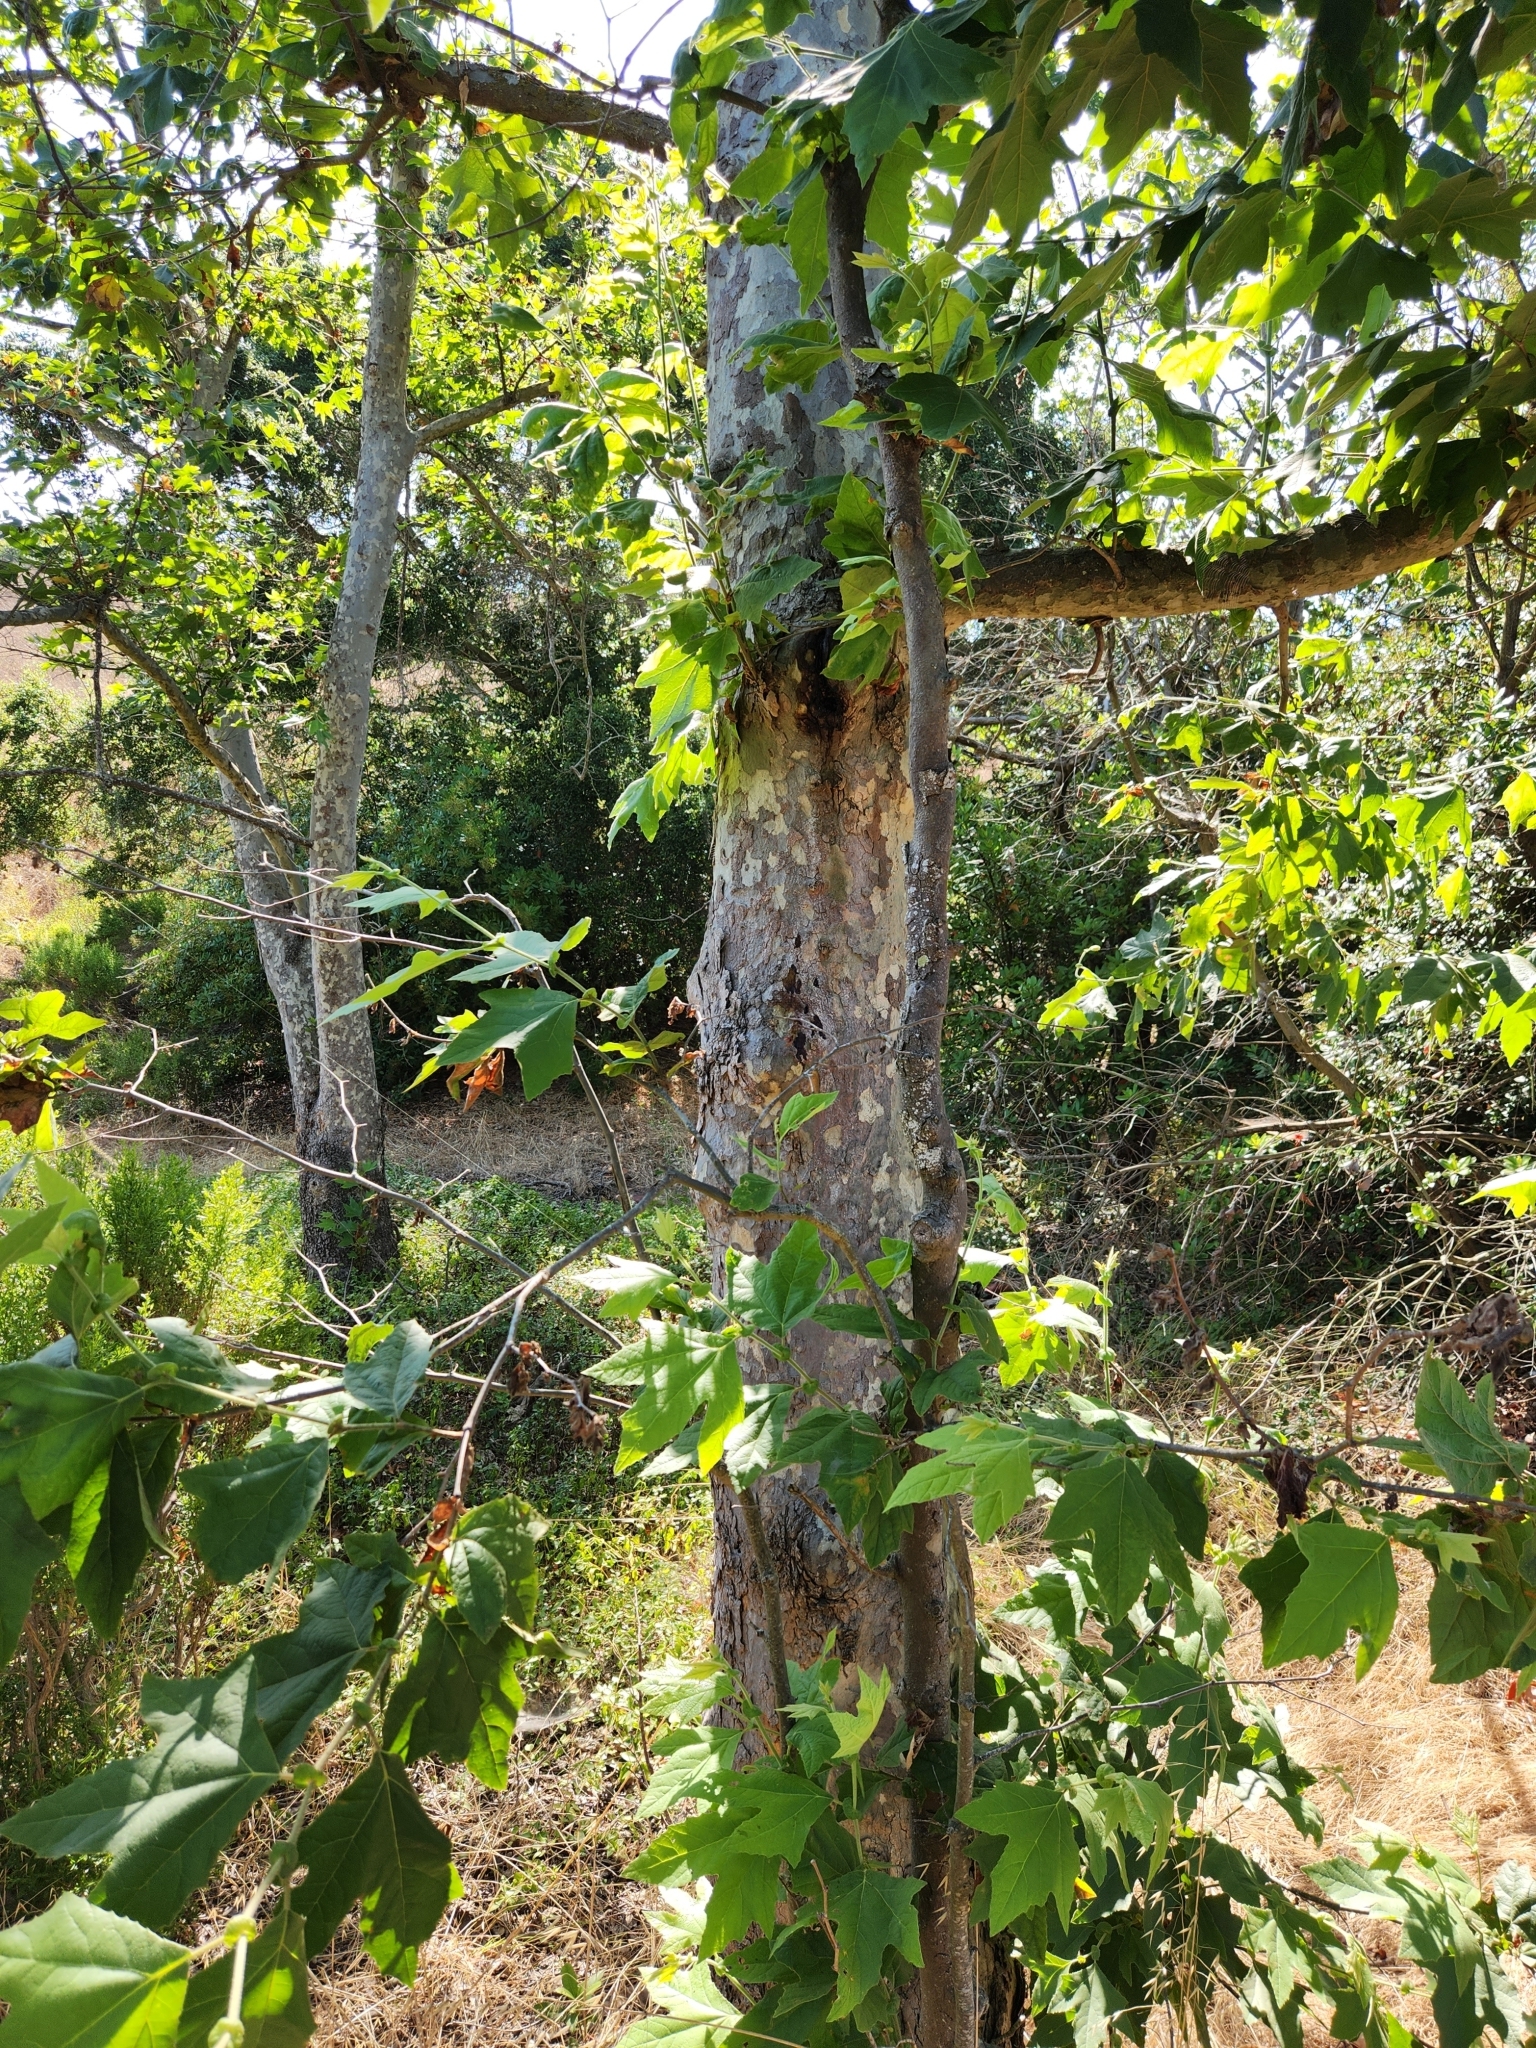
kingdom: Plantae
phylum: Tracheophyta
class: Magnoliopsida
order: Proteales
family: Platanaceae
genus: Platanus
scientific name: Platanus racemosa
